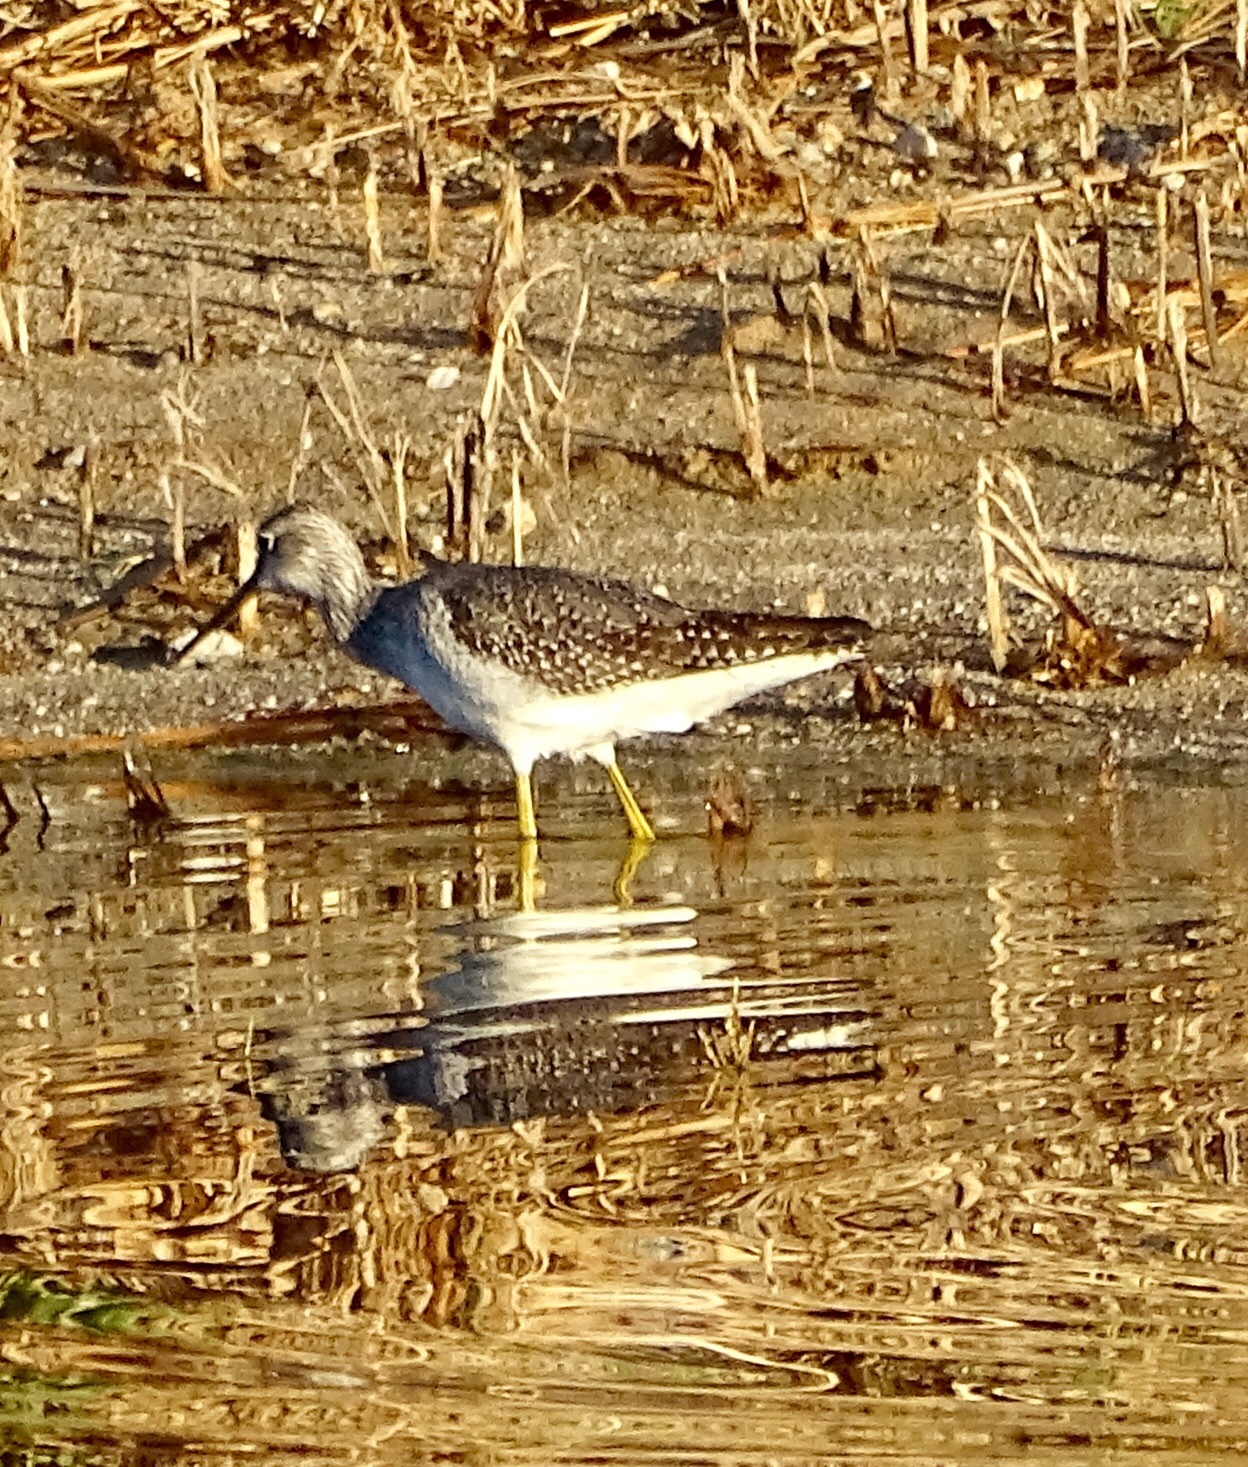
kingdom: Animalia
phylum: Chordata
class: Aves
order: Charadriiformes
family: Scolopacidae
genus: Tringa
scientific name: Tringa melanoleuca
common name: Greater yellowlegs
